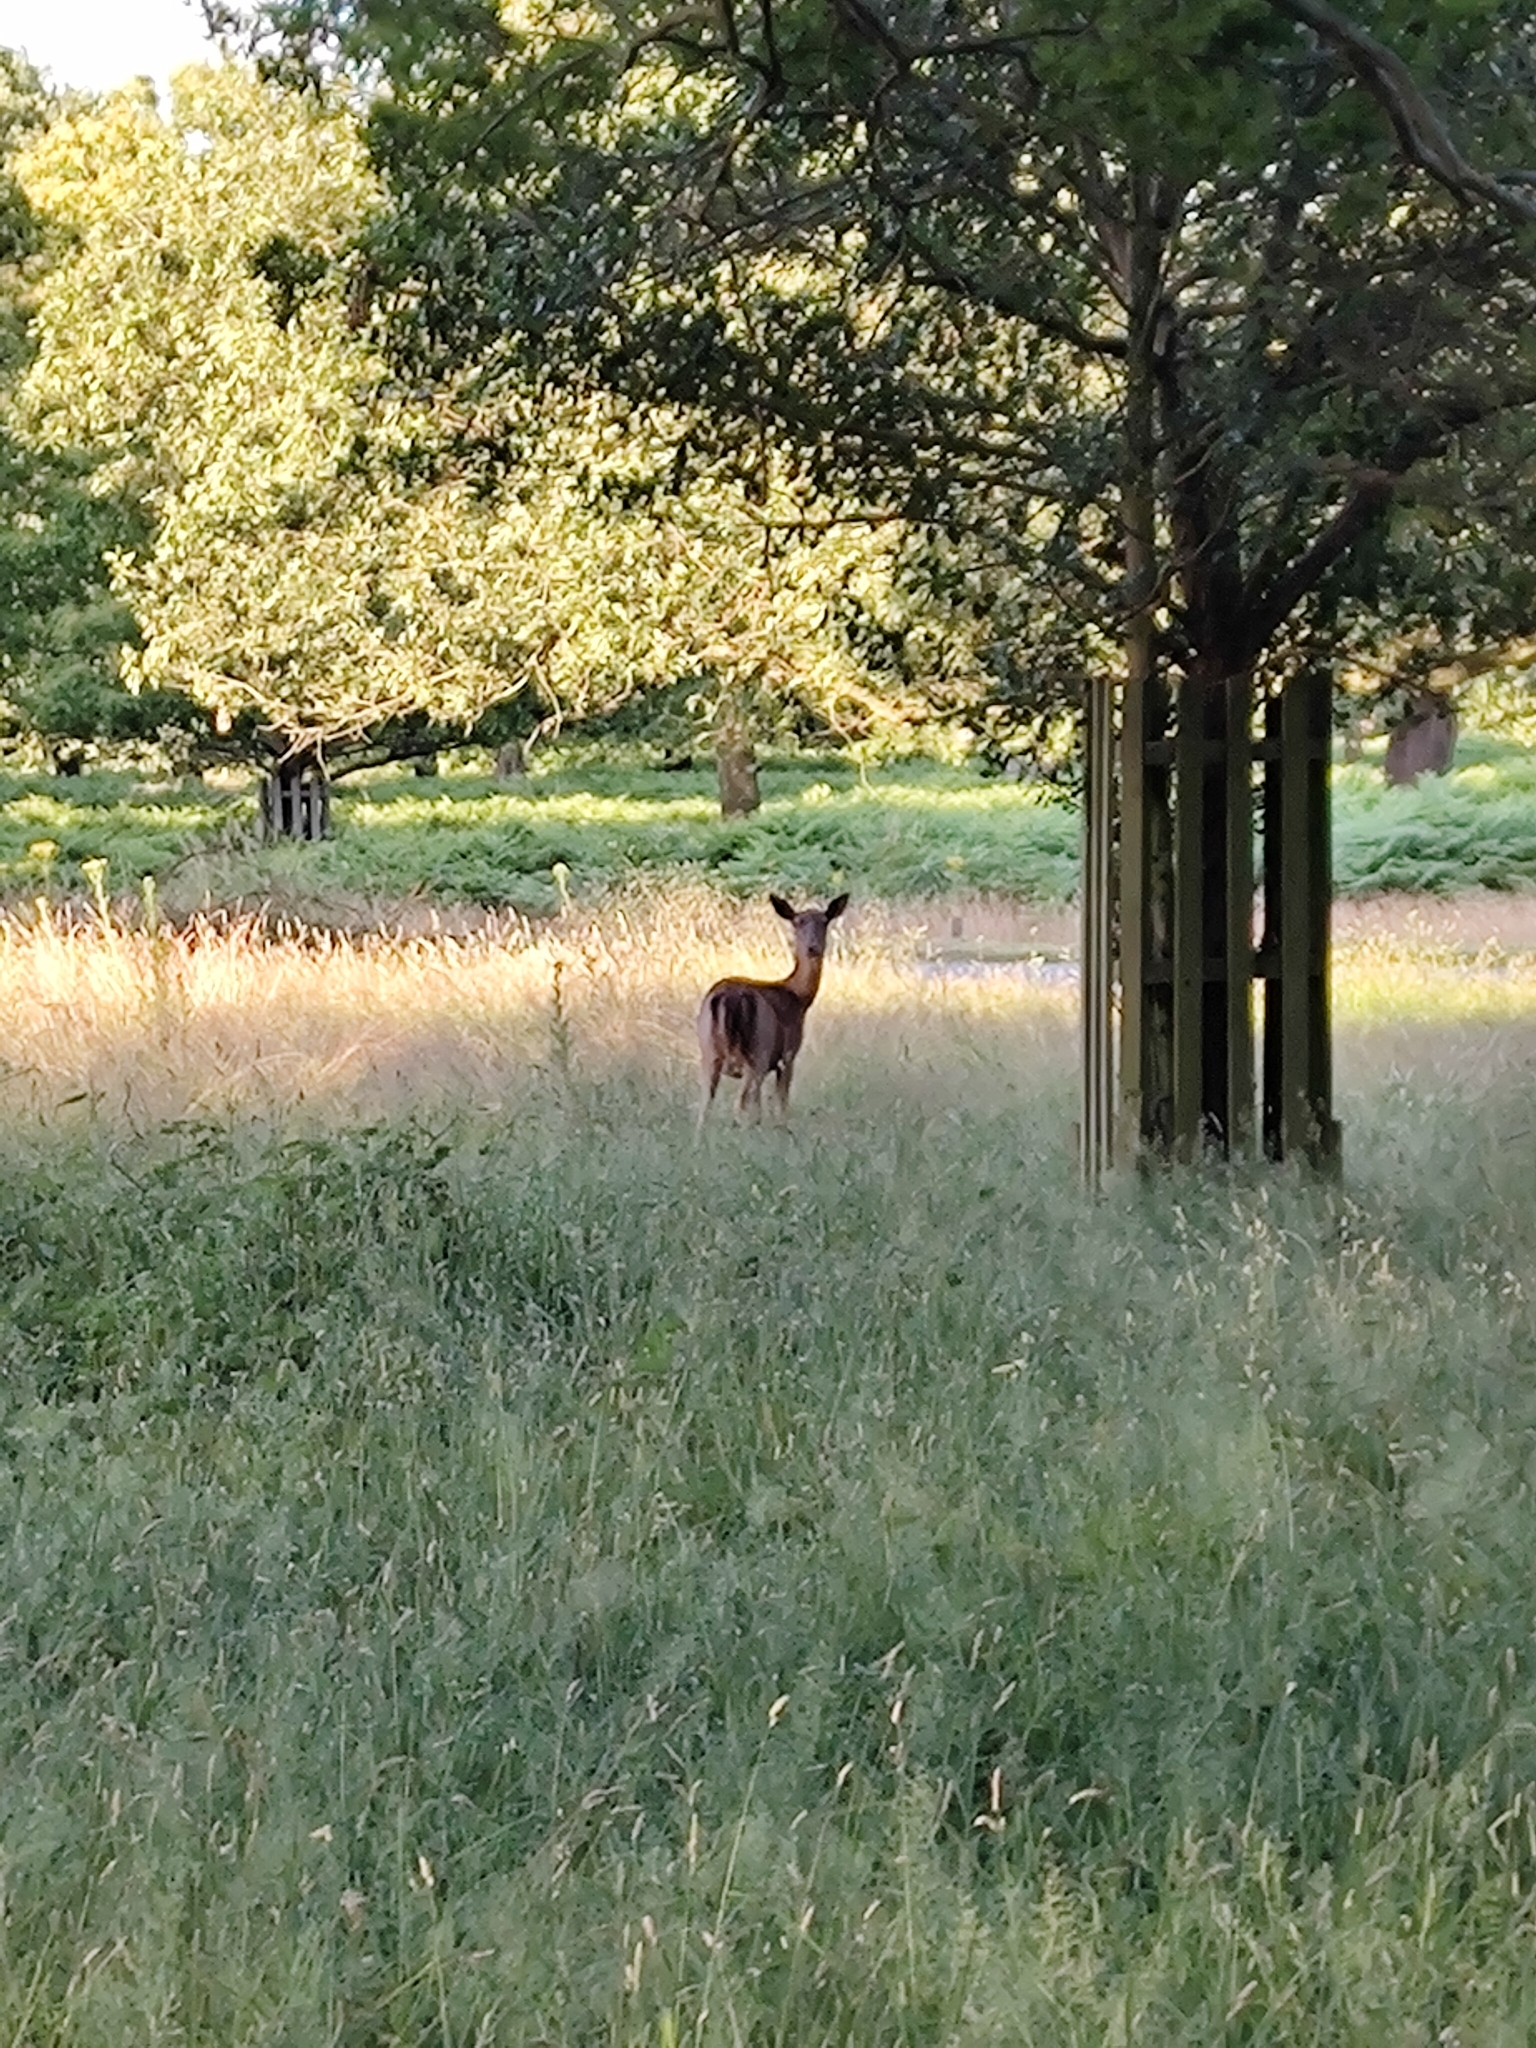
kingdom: Animalia
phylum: Chordata
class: Mammalia
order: Artiodactyla
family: Cervidae
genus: Dama
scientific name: Dama dama
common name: Fallow deer
